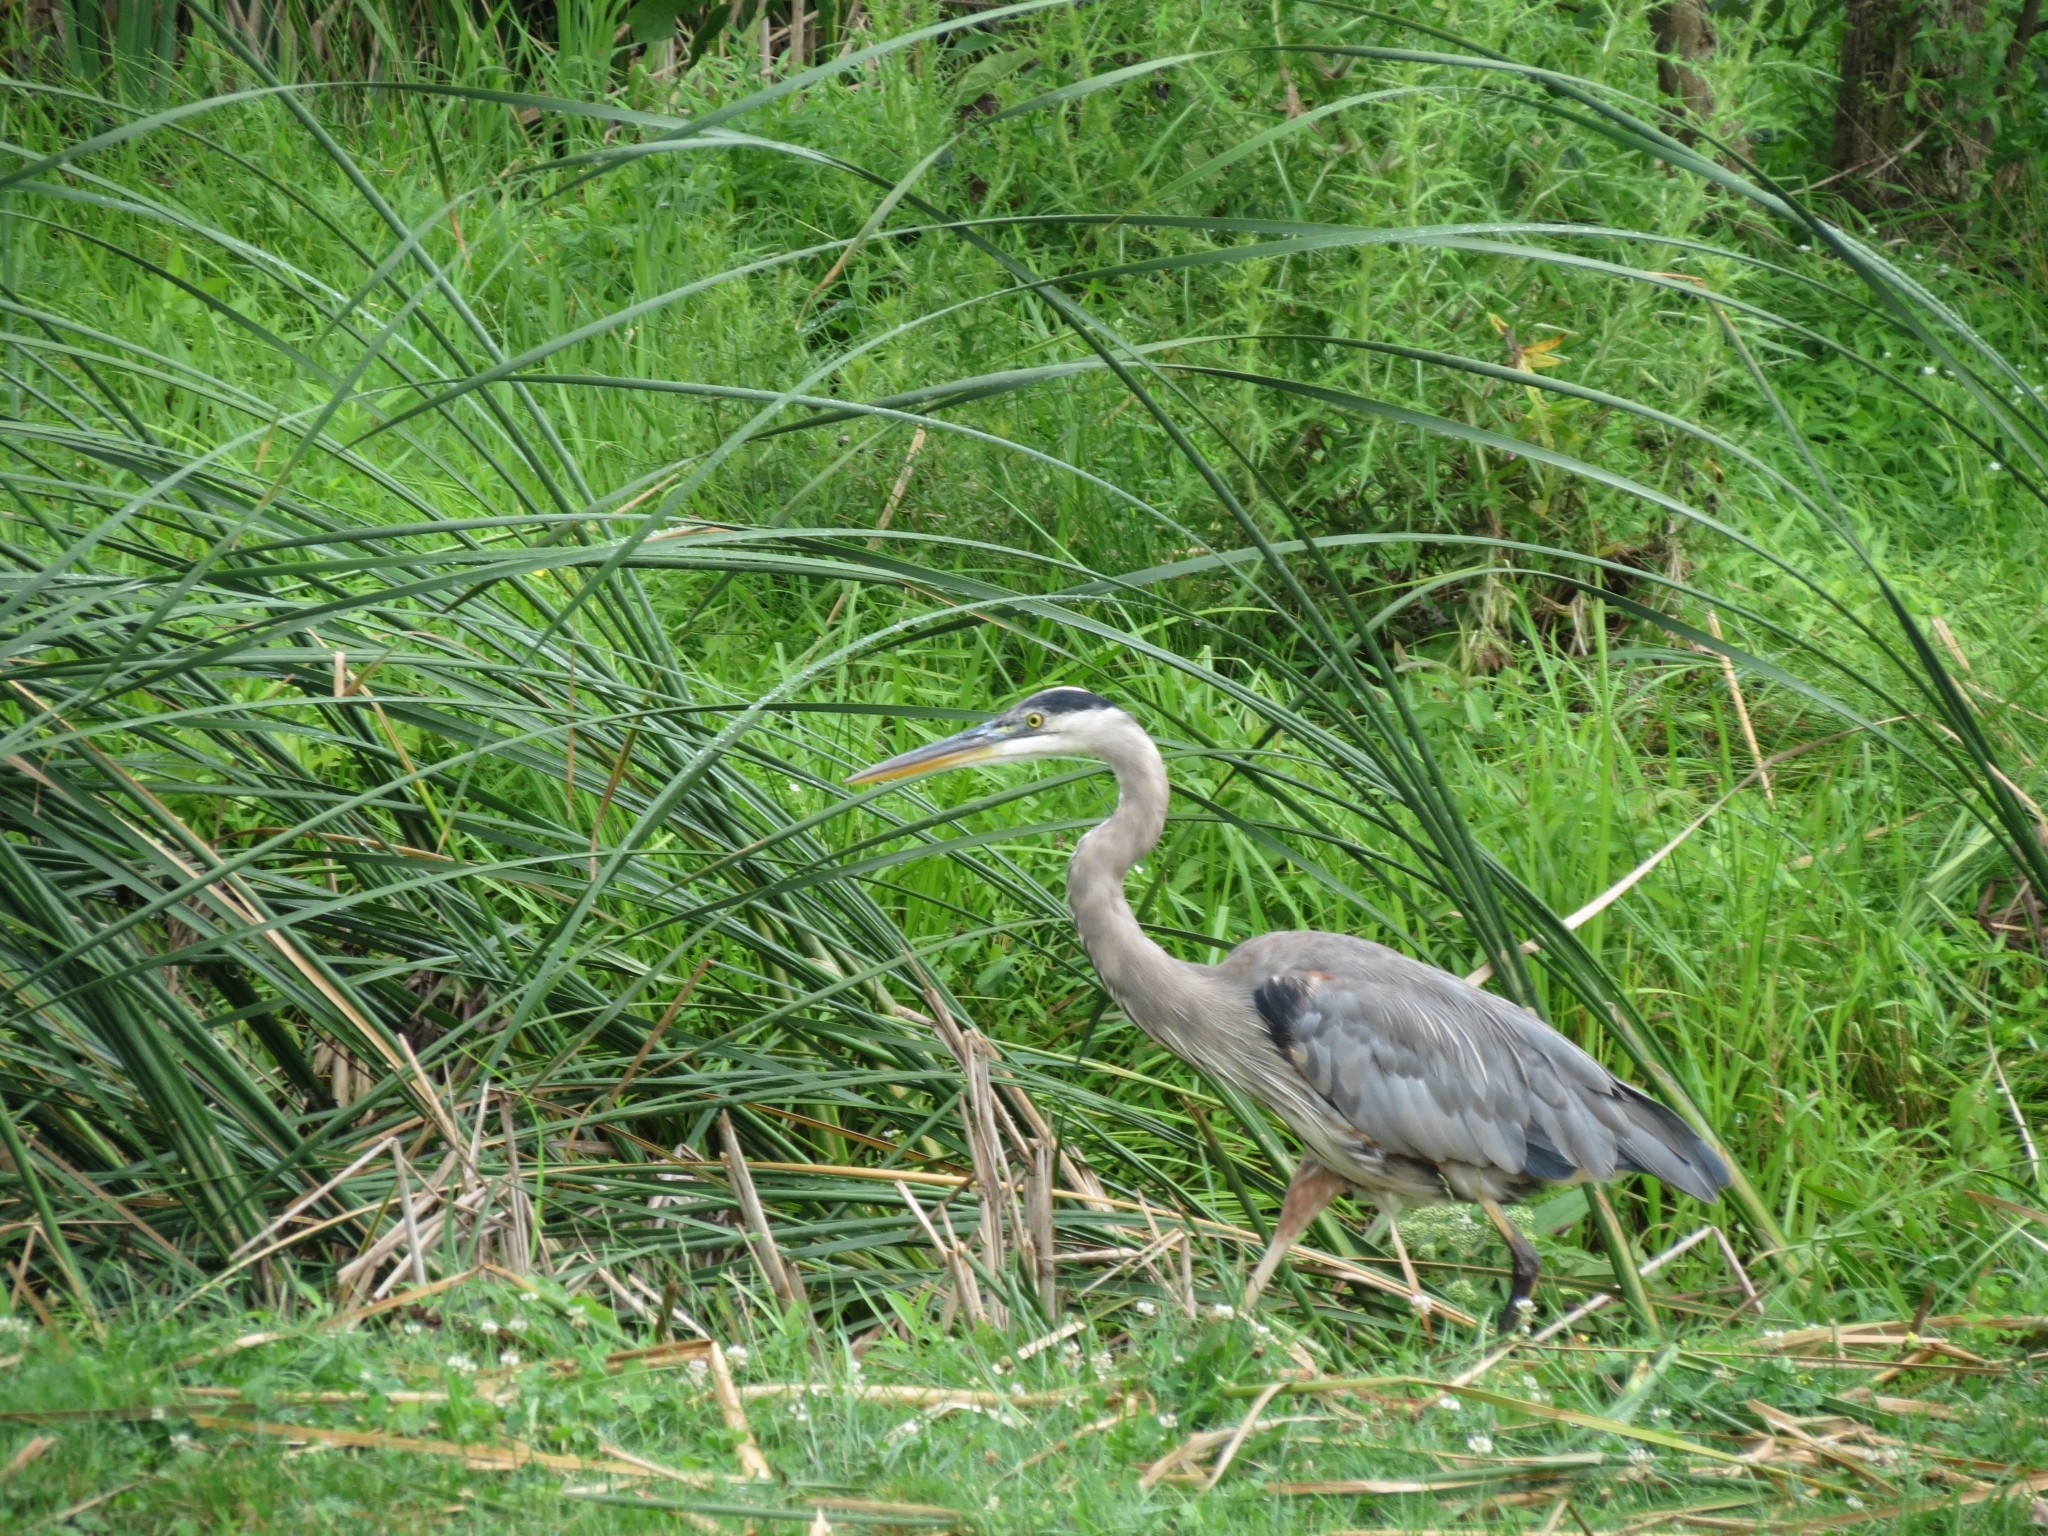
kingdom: Animalia
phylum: Chordata
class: Aves
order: Pelecaniformes
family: Ardeidae
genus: Ardea
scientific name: Ardea herodias
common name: Great blue heron
